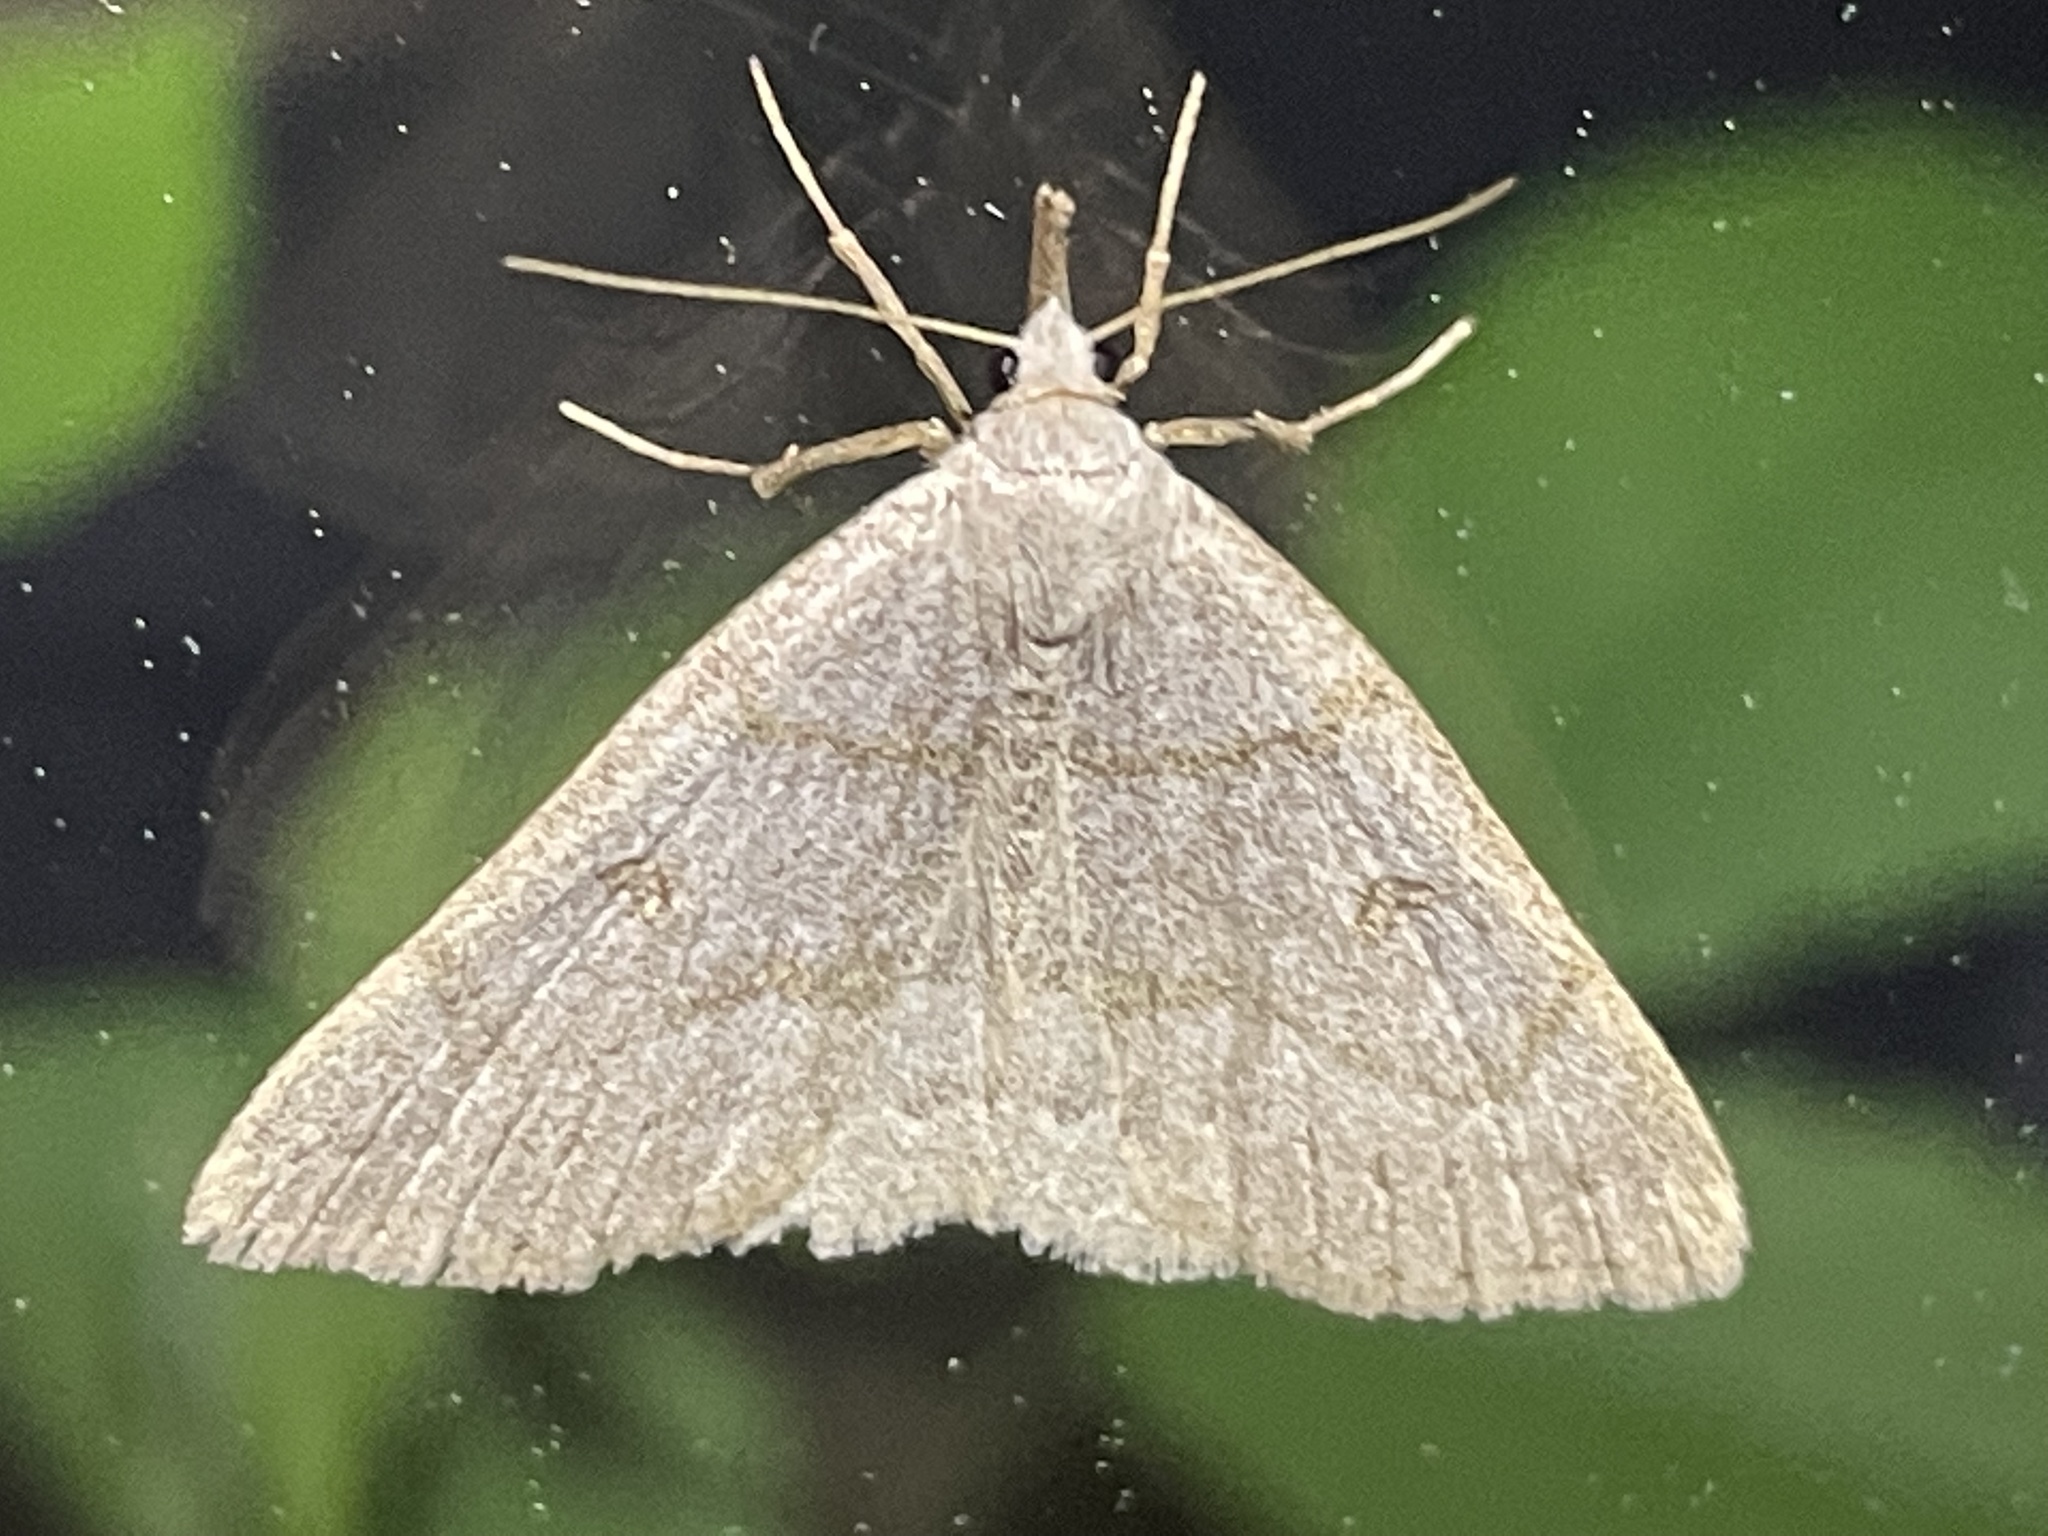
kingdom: Animalia
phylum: Arthropoda
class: Insecta
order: Lepidoptera
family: Erebidae
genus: Macrochilo
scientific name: Macrochilo morbidalis
